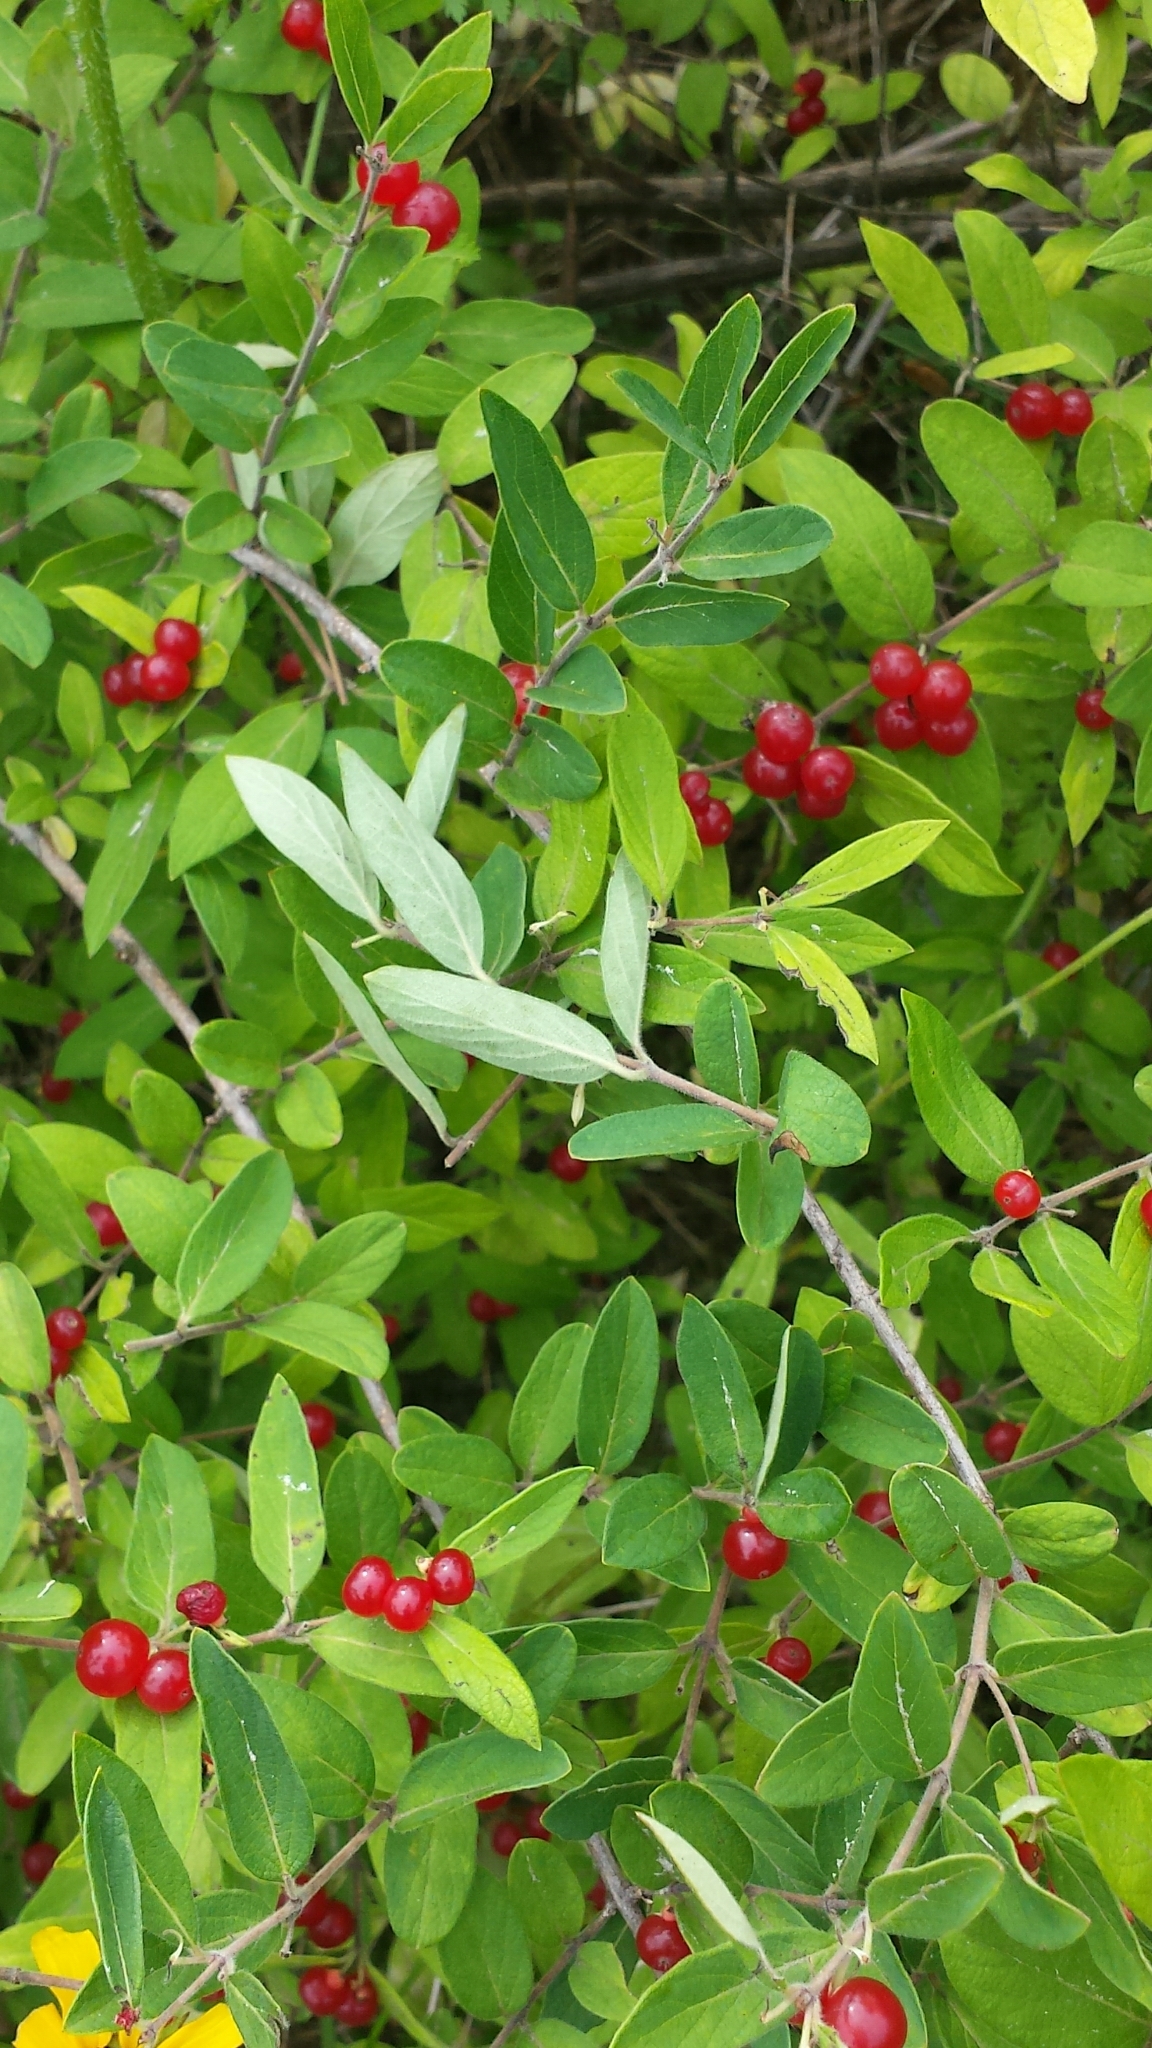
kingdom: Plantae
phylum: Tracheophyta
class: Magnoliopsida
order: Dipsacales
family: Caprifoliaceae
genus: Lonicera
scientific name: Lonicera morrowii
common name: Morrow's honeysuckle
